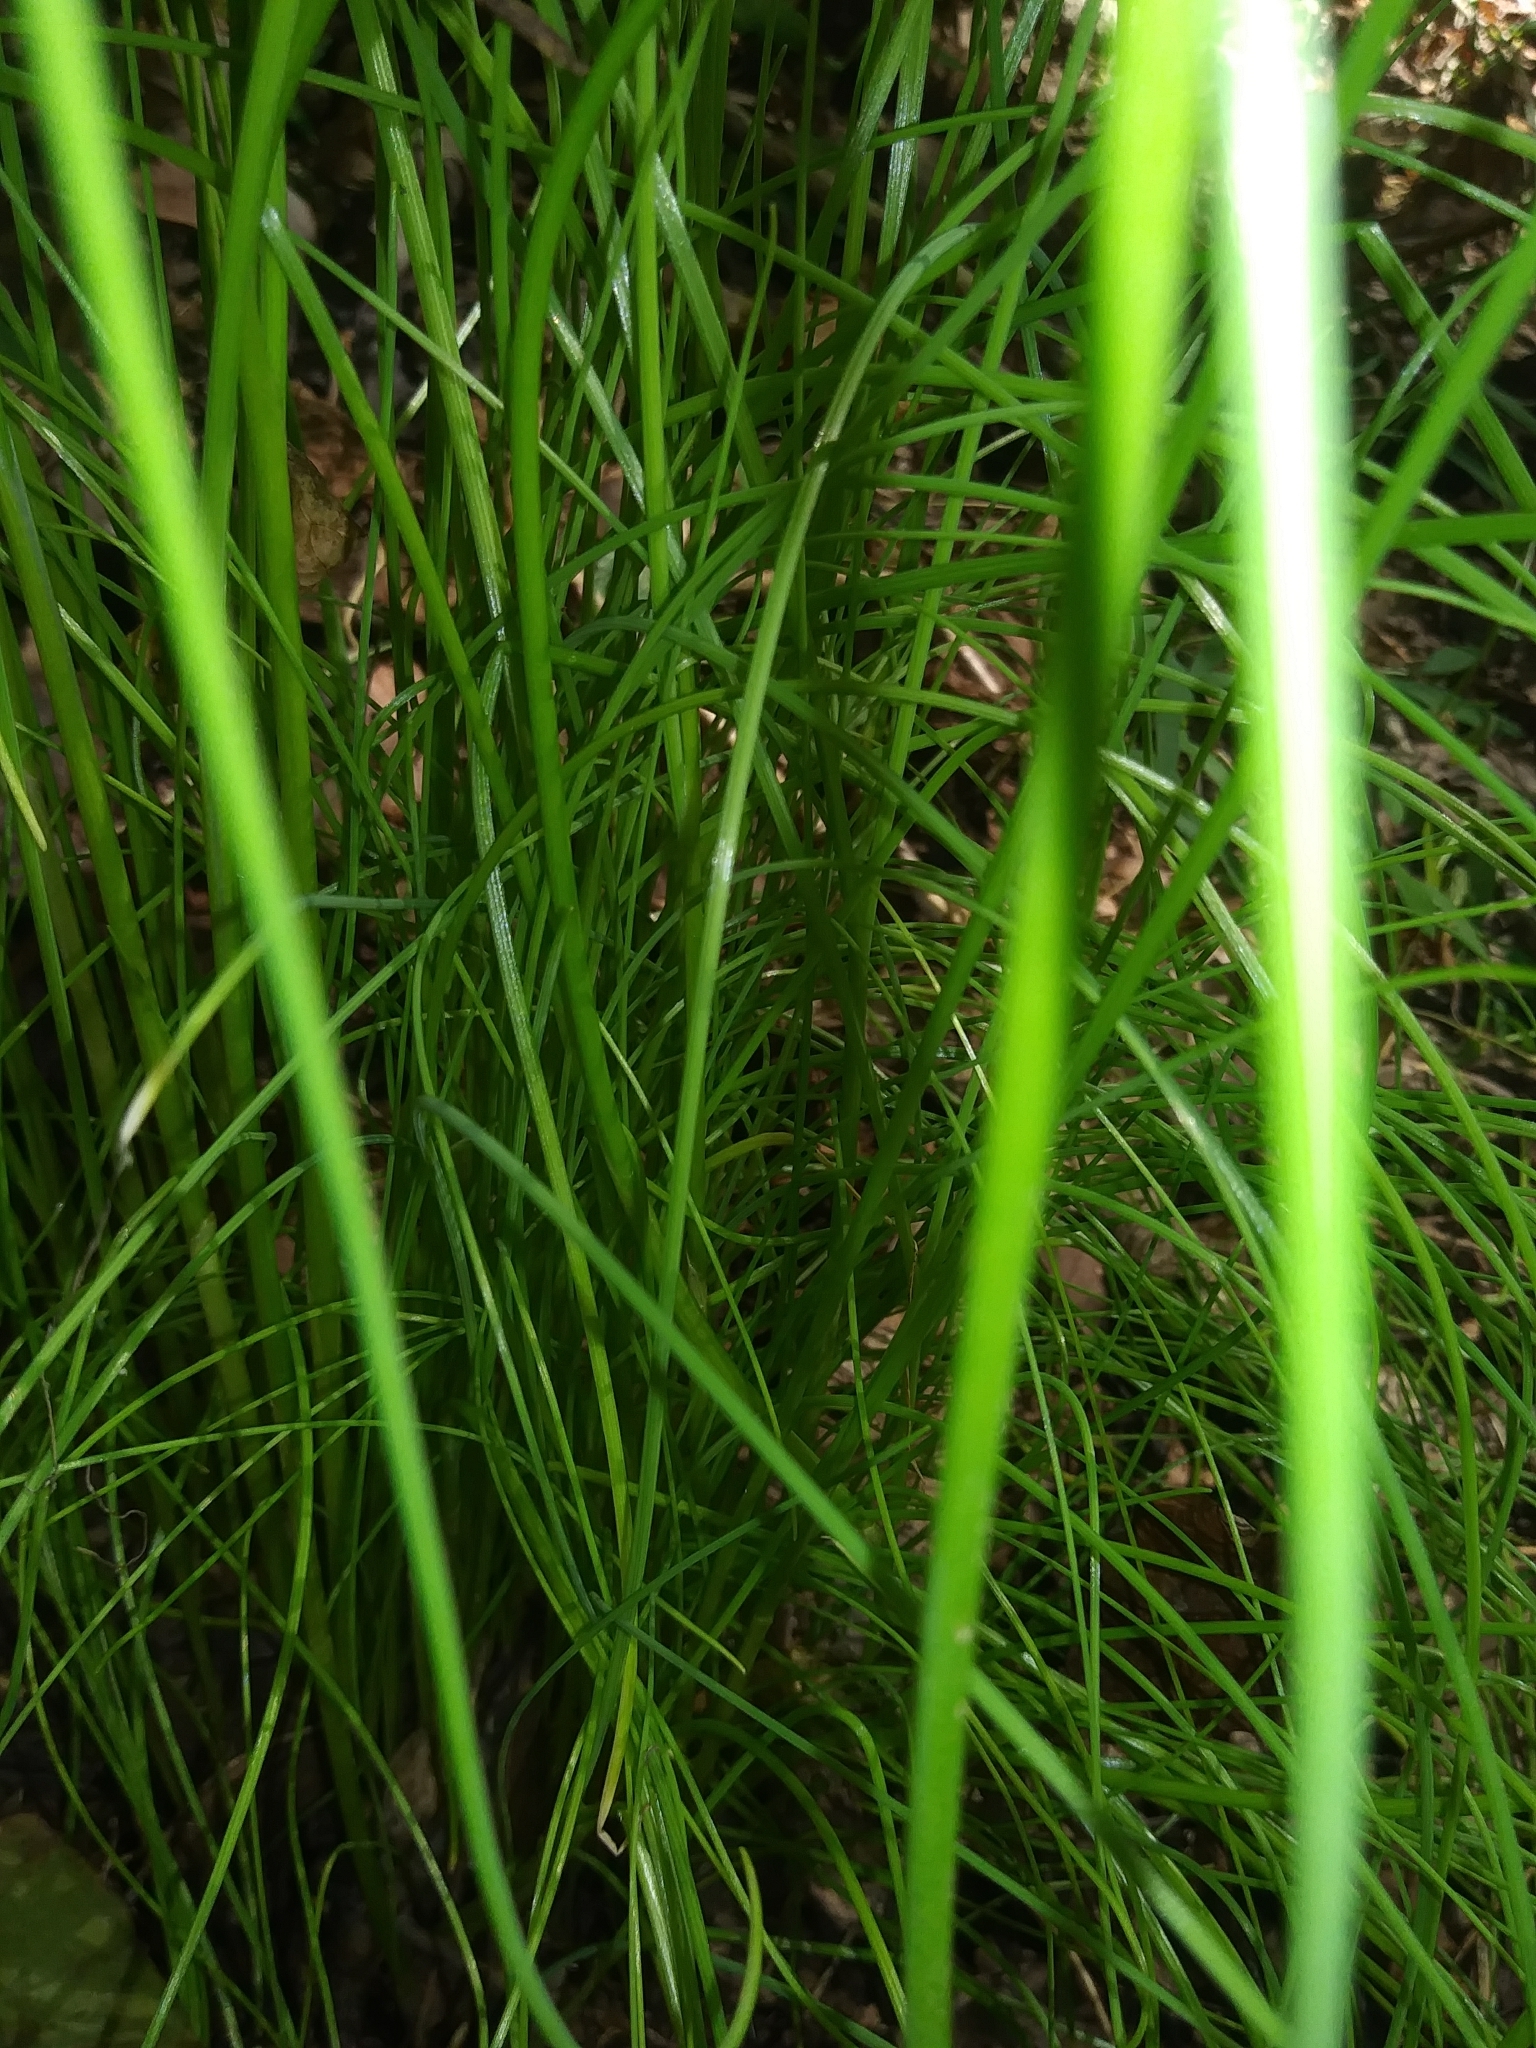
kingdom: Plantae
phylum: Tracheophyta
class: Liliopsida
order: Asparagales
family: Amaryllidaceae
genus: Allium
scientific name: Allium vineale
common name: Crow garlic
